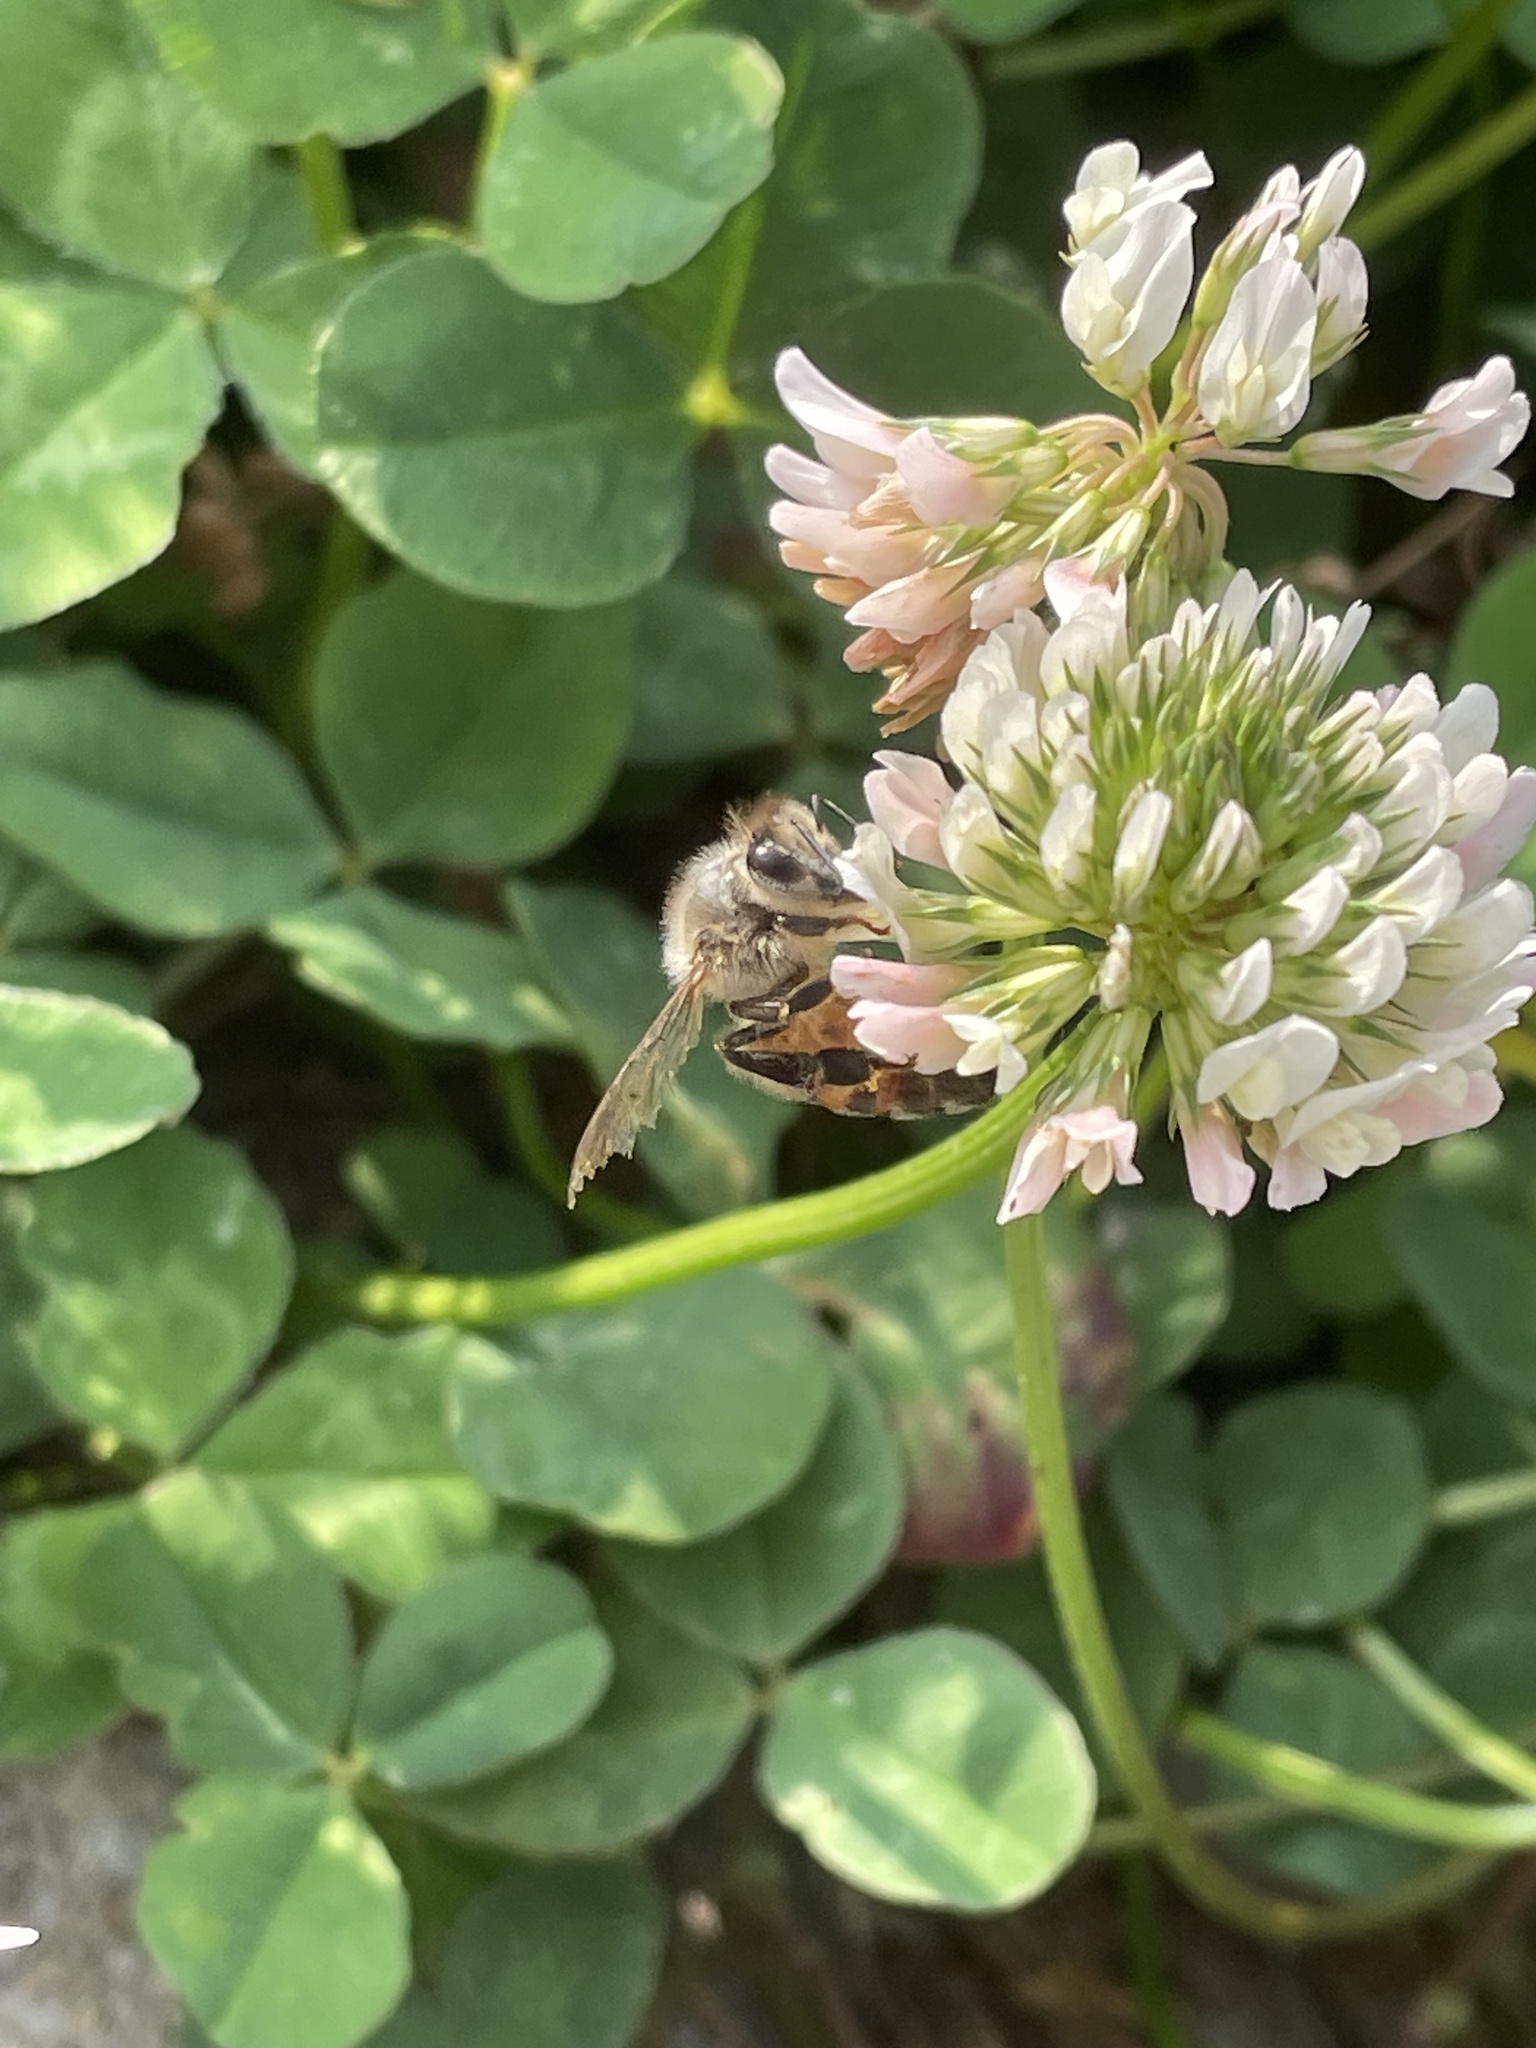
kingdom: Animalia
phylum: Arthropoda
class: Insecta
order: Hymenoptera
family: Apidae
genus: Apis
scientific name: Apis mellifera
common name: Honey bee
